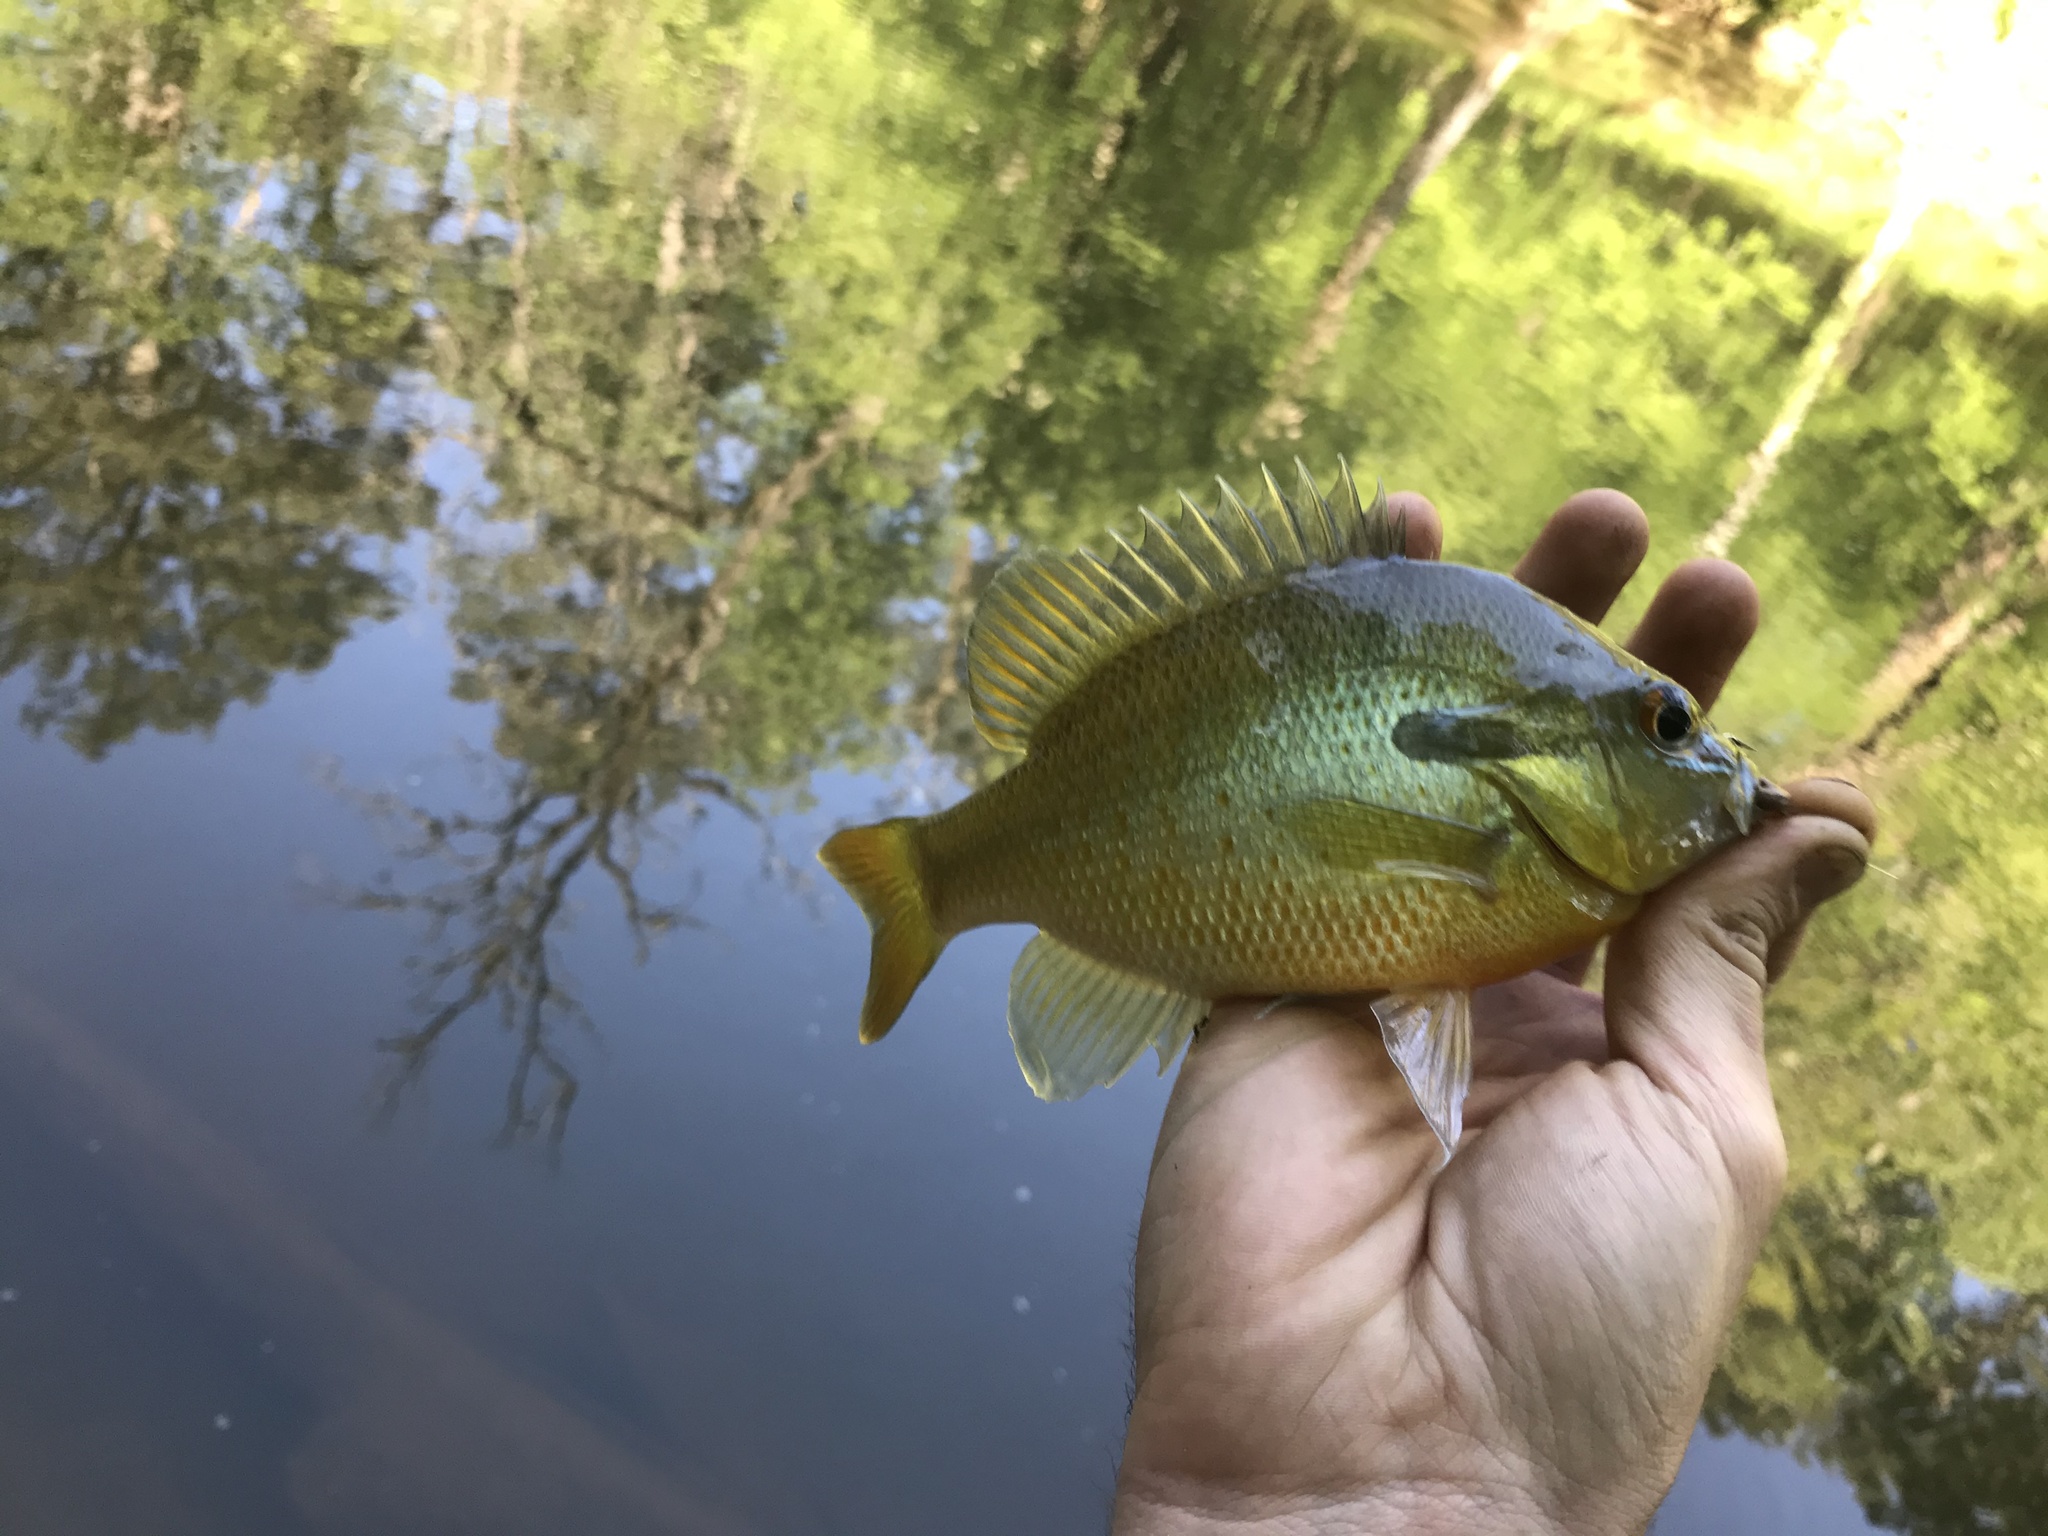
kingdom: Animalia
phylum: Chordata
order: Perciformes
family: Centrarchidae
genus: Lepomis
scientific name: Lepomis auritus
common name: Redbreast sunfish
